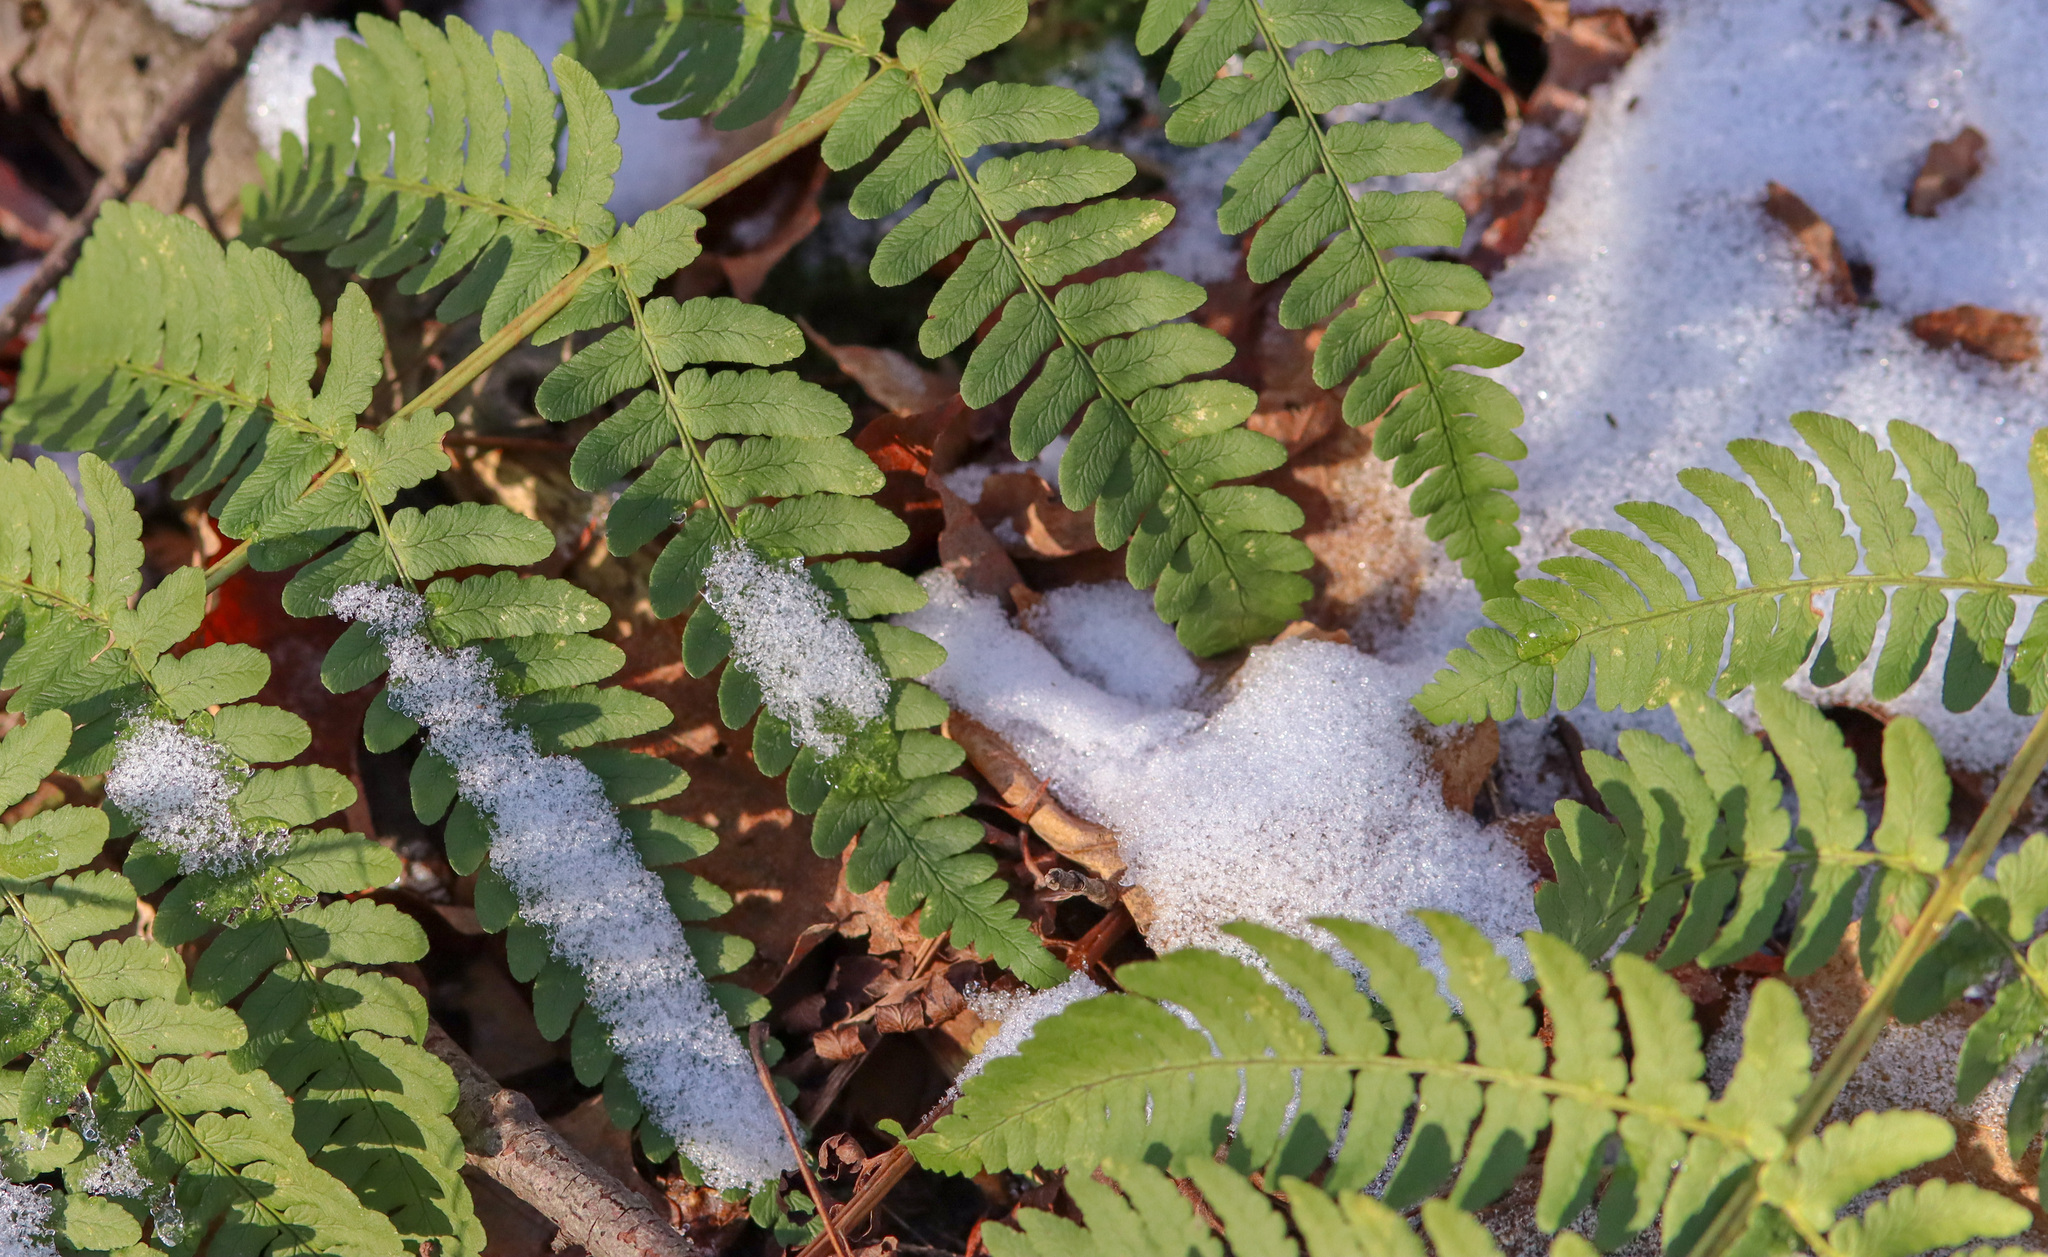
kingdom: Plantae
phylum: Tracheophyta
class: Polypodiopsida
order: Polypodiales
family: Dryopteridaceae
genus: Dryopteris
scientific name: Dryopteris marginalis
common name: Marginal wood fern
